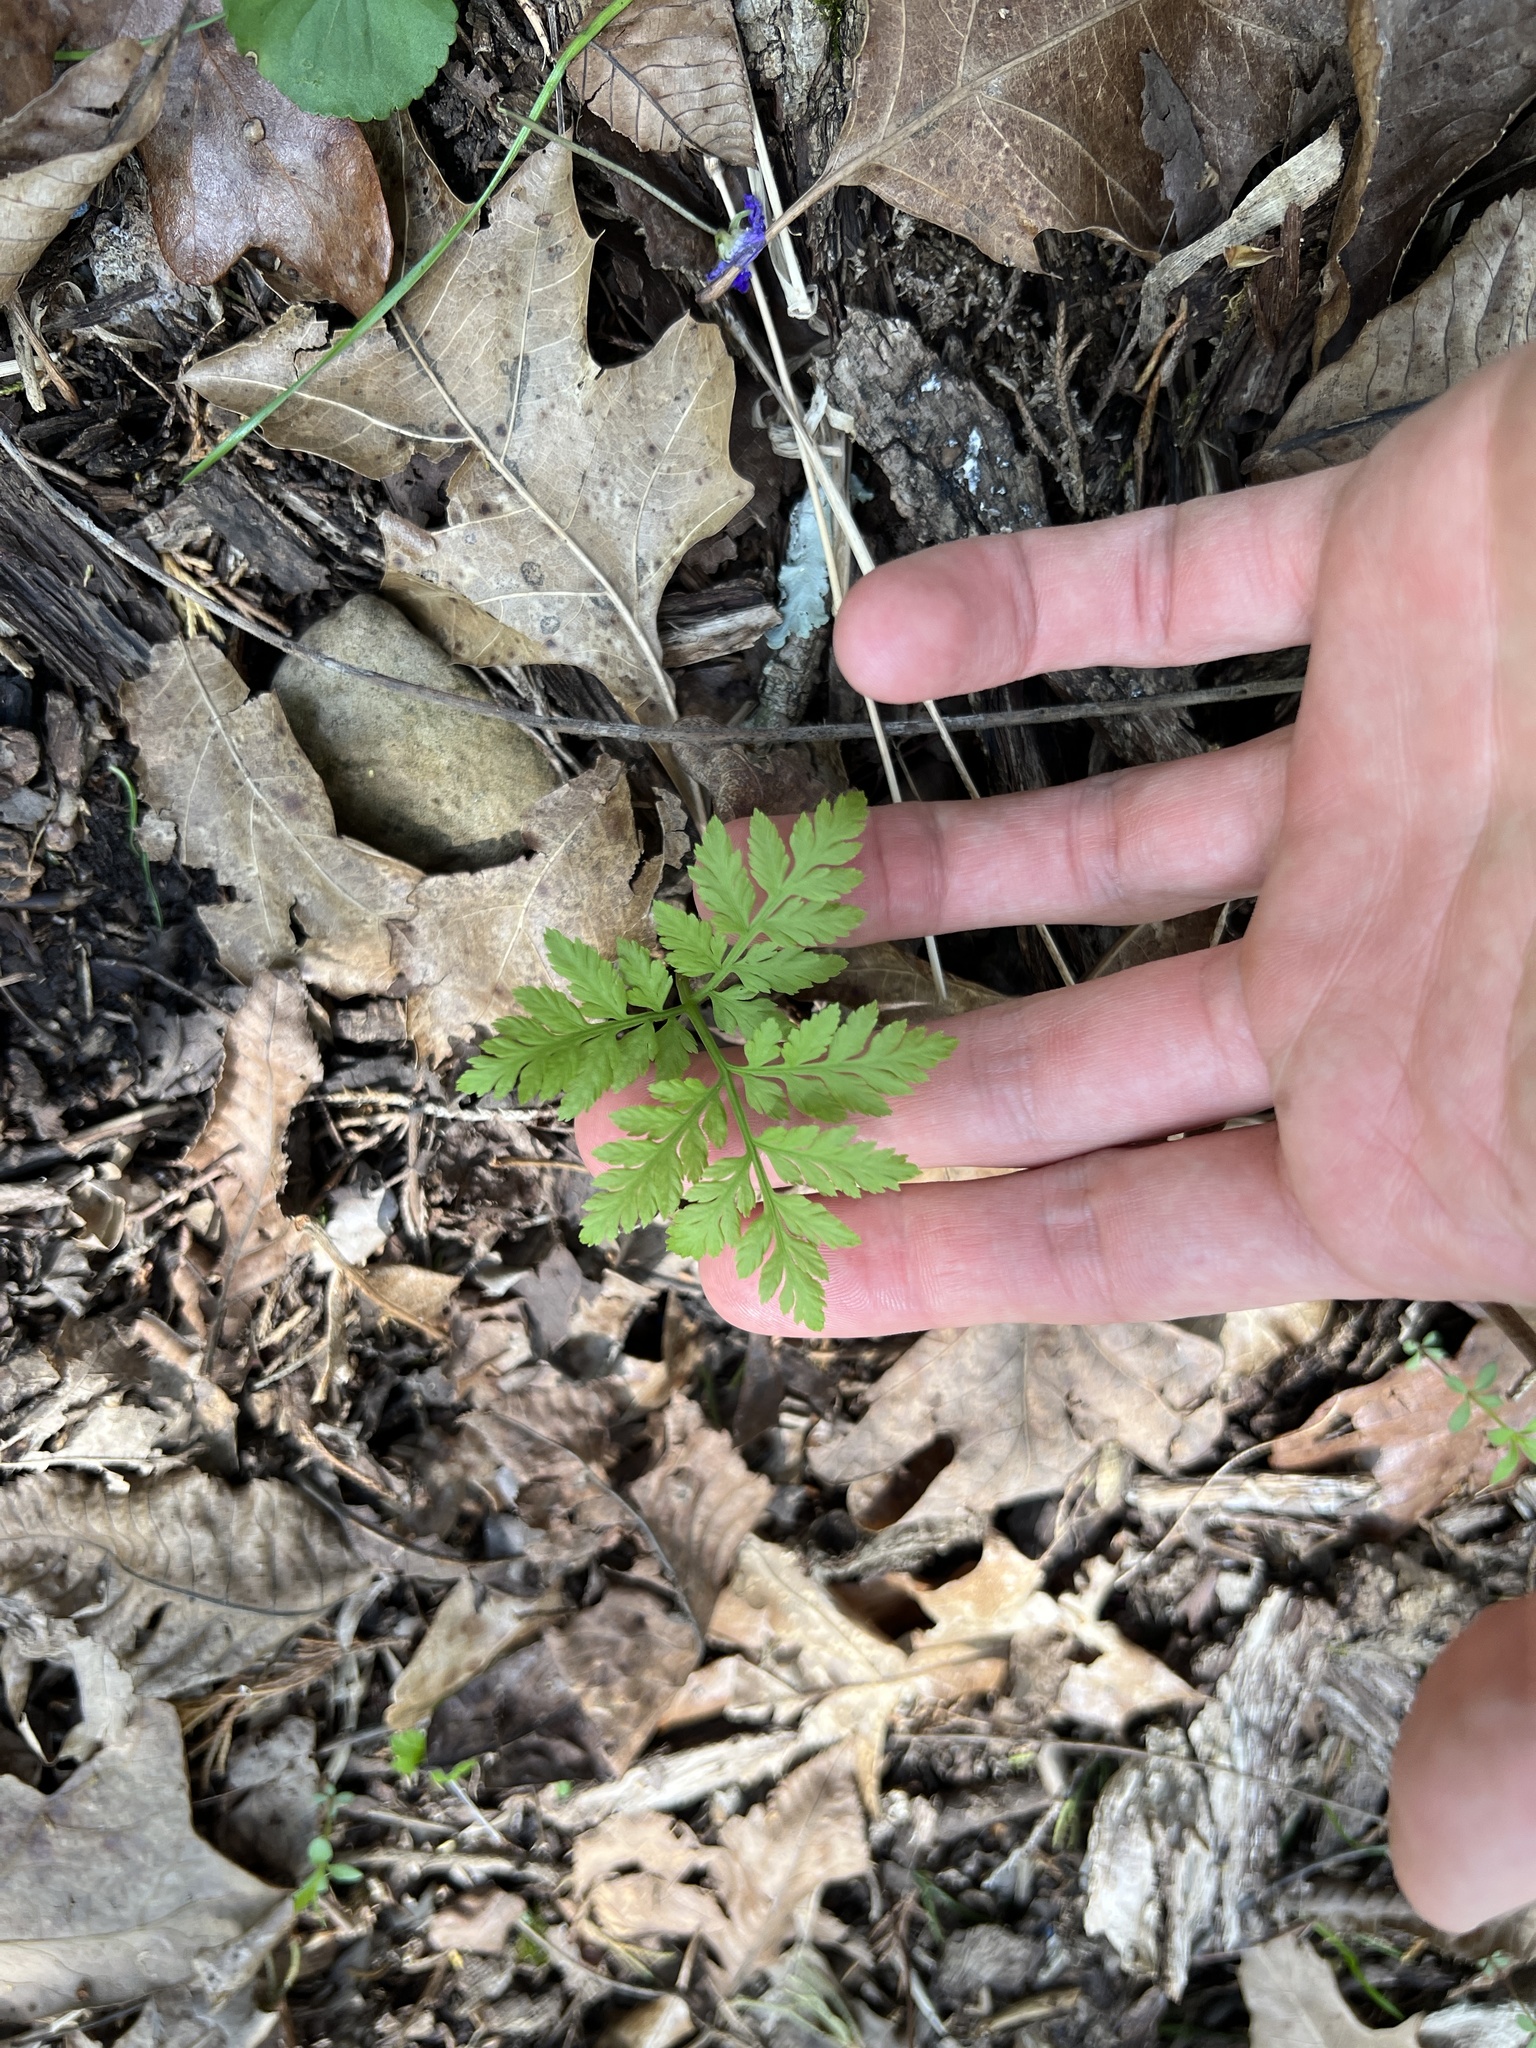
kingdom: Plantae
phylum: Tracheophyta
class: Polypodiopsida
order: Ophioglossales
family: Ophioglossaceae
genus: Botrypus
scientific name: Botrypus virginianus
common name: Common grapefern
